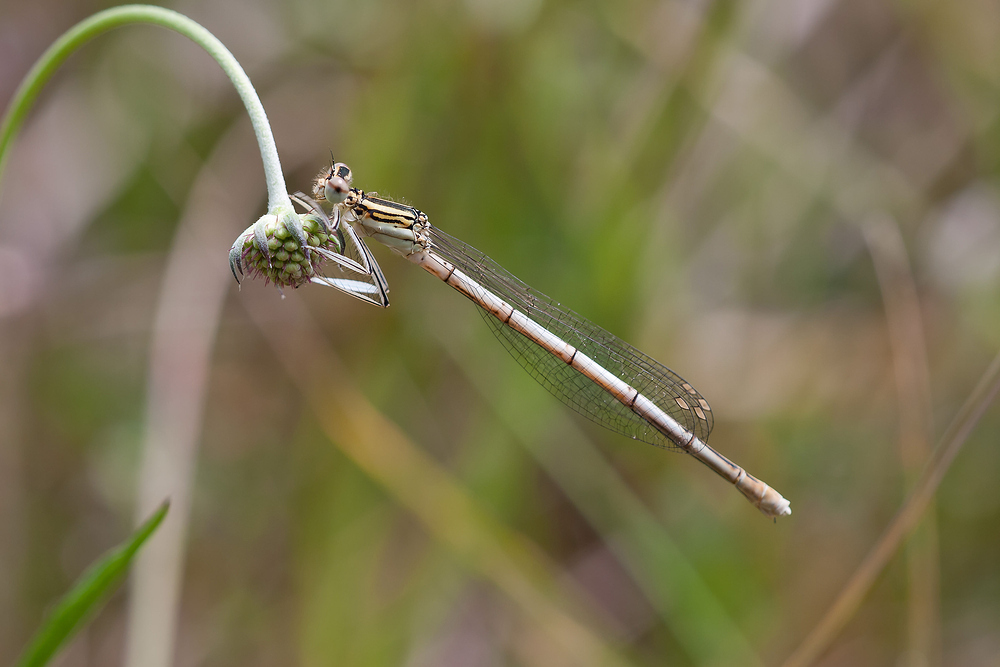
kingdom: Animalia
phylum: Arthropoda
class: Insecta
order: Odonata
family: Platycnemididae
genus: Platycnemis
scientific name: Platycnemis pennipes
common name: White-legged damselfly
